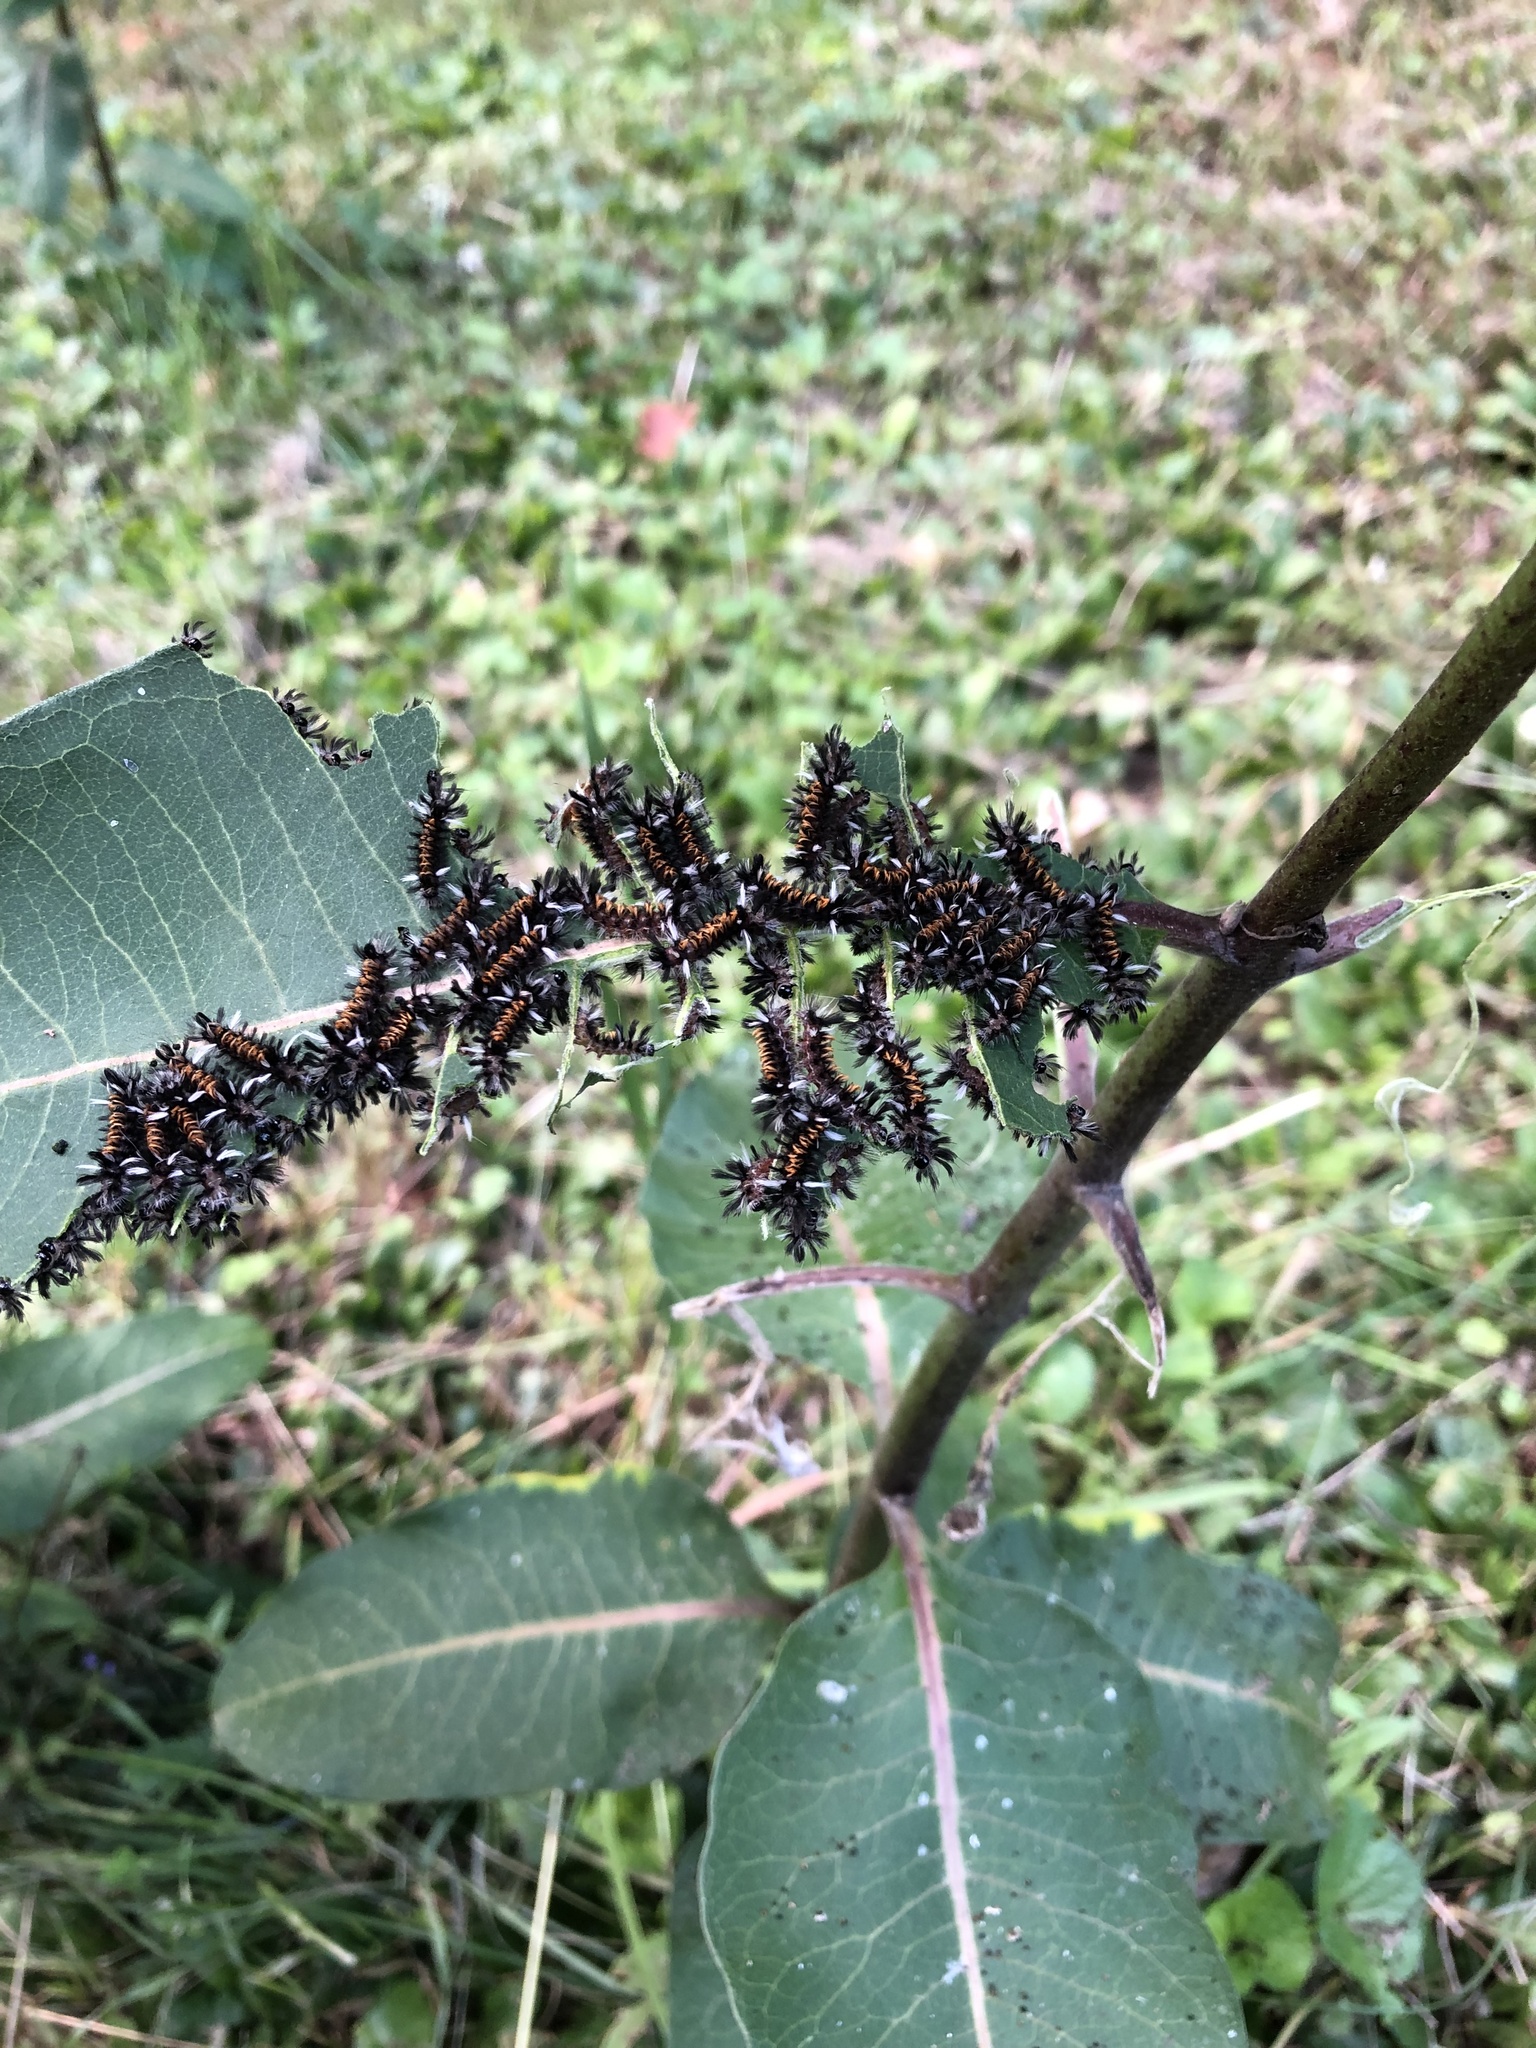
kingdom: Animalia
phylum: Arthropoda
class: Insecta
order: Lepidoptera
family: Erebidae
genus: Euchaetes
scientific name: Euchaetes egle
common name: Milkweed tussock moth
